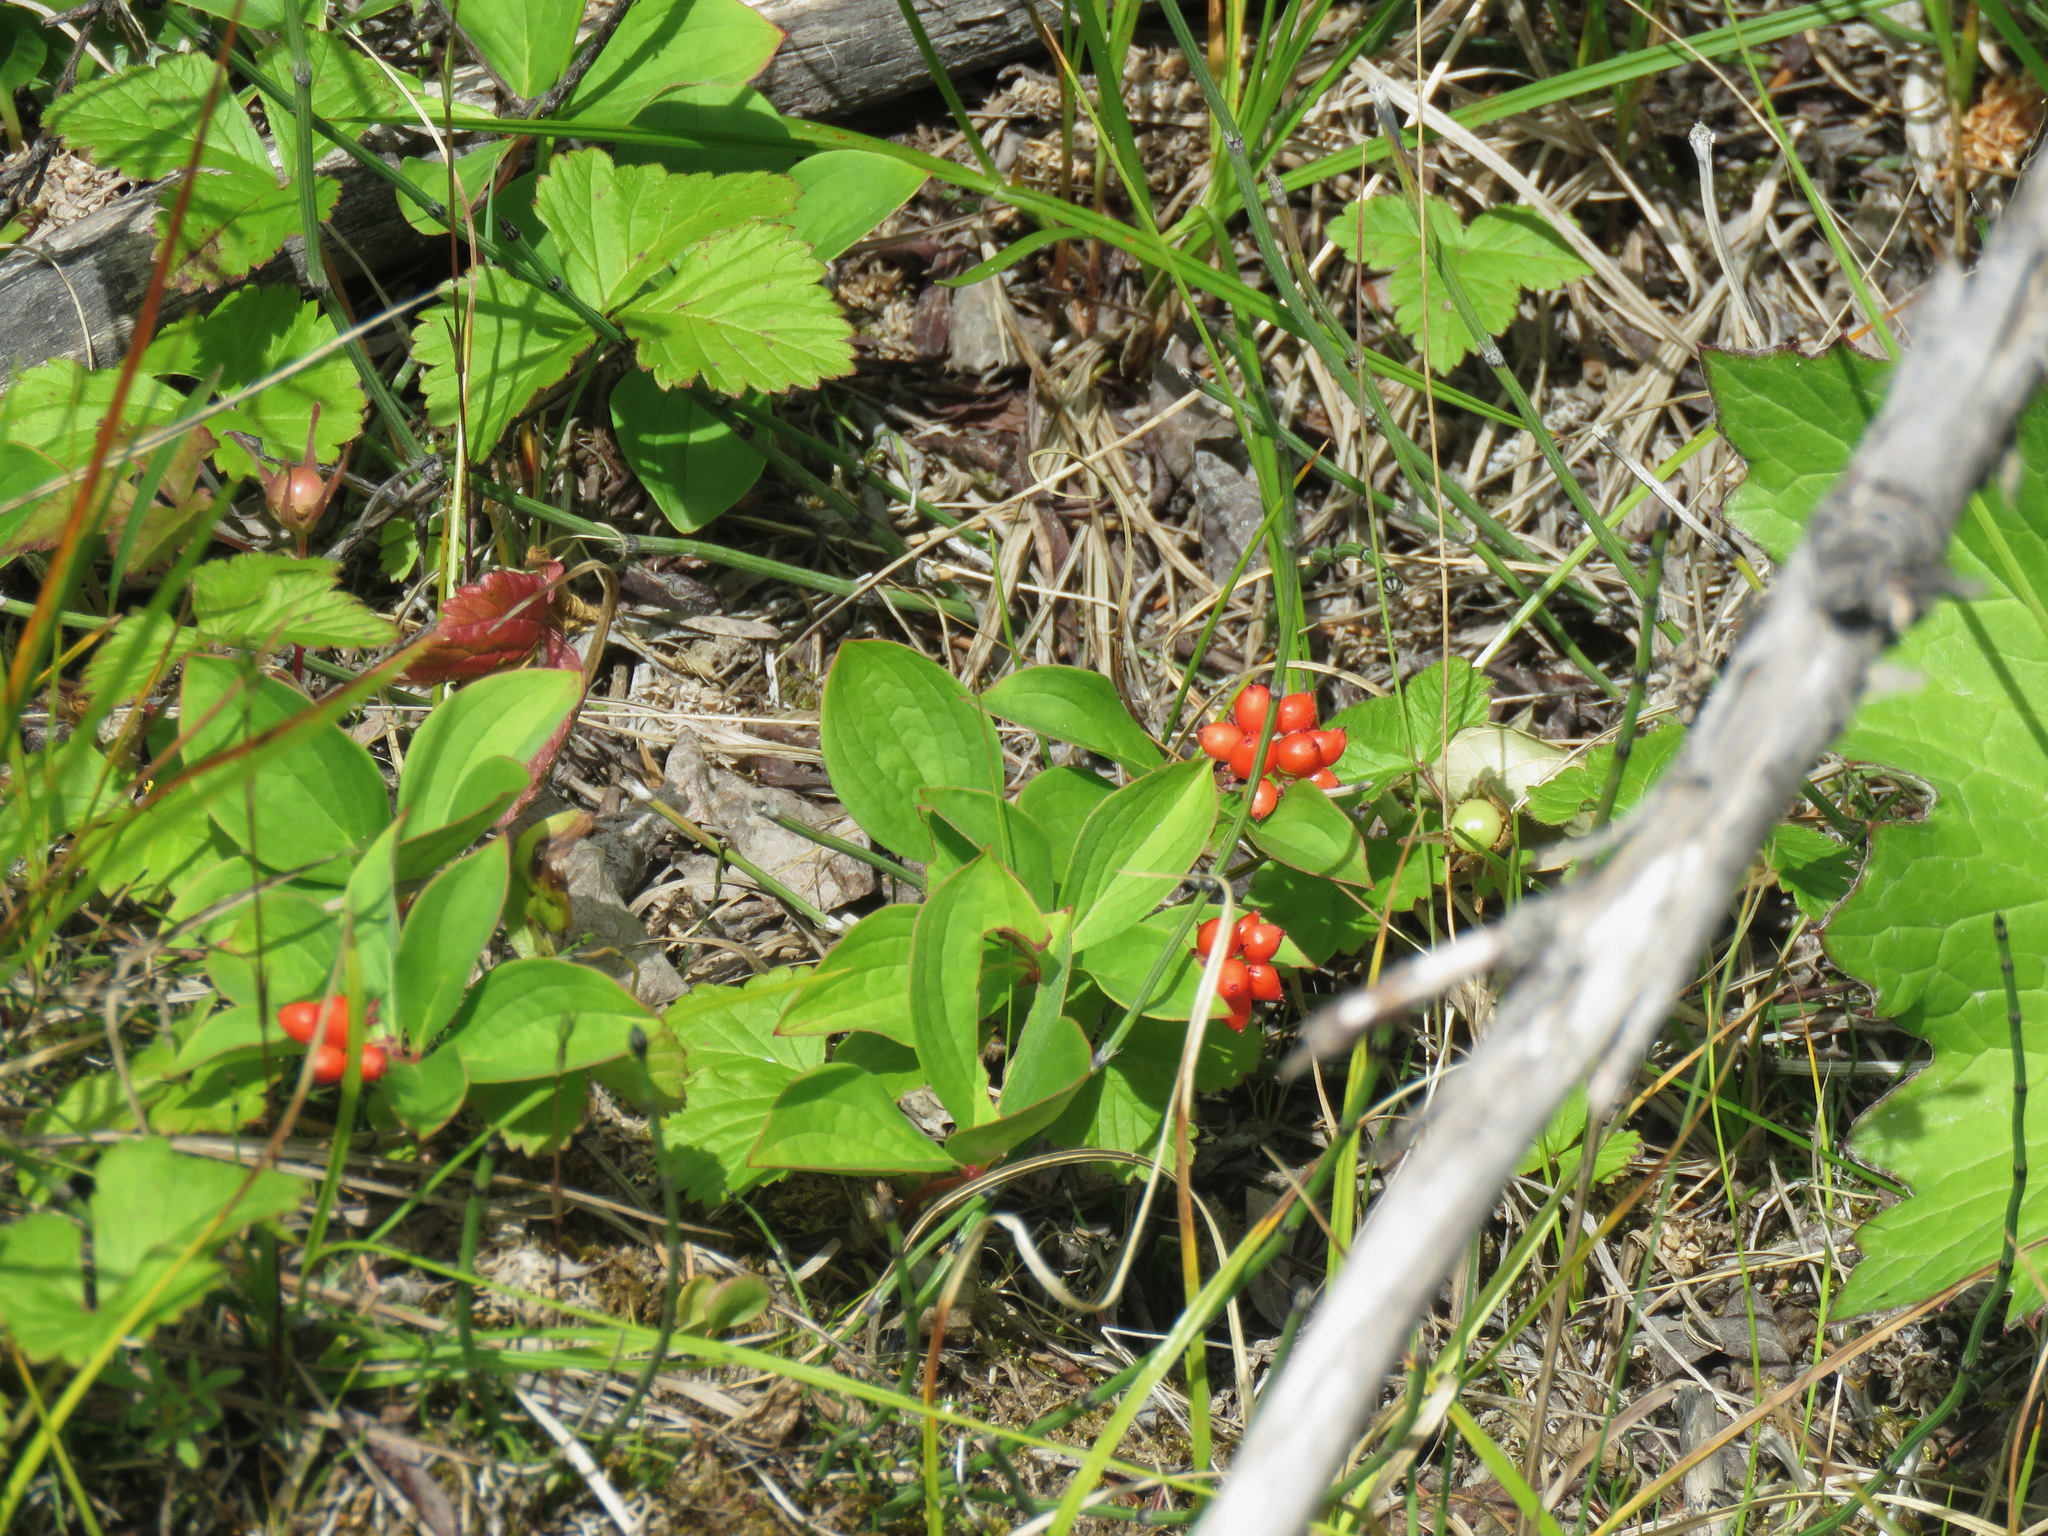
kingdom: Plantae
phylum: Tracheophyta
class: Magnoliopsida
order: Cornales
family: Cornaceae
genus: Cornus
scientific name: Cornus canadensis
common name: Creeping dogwood
